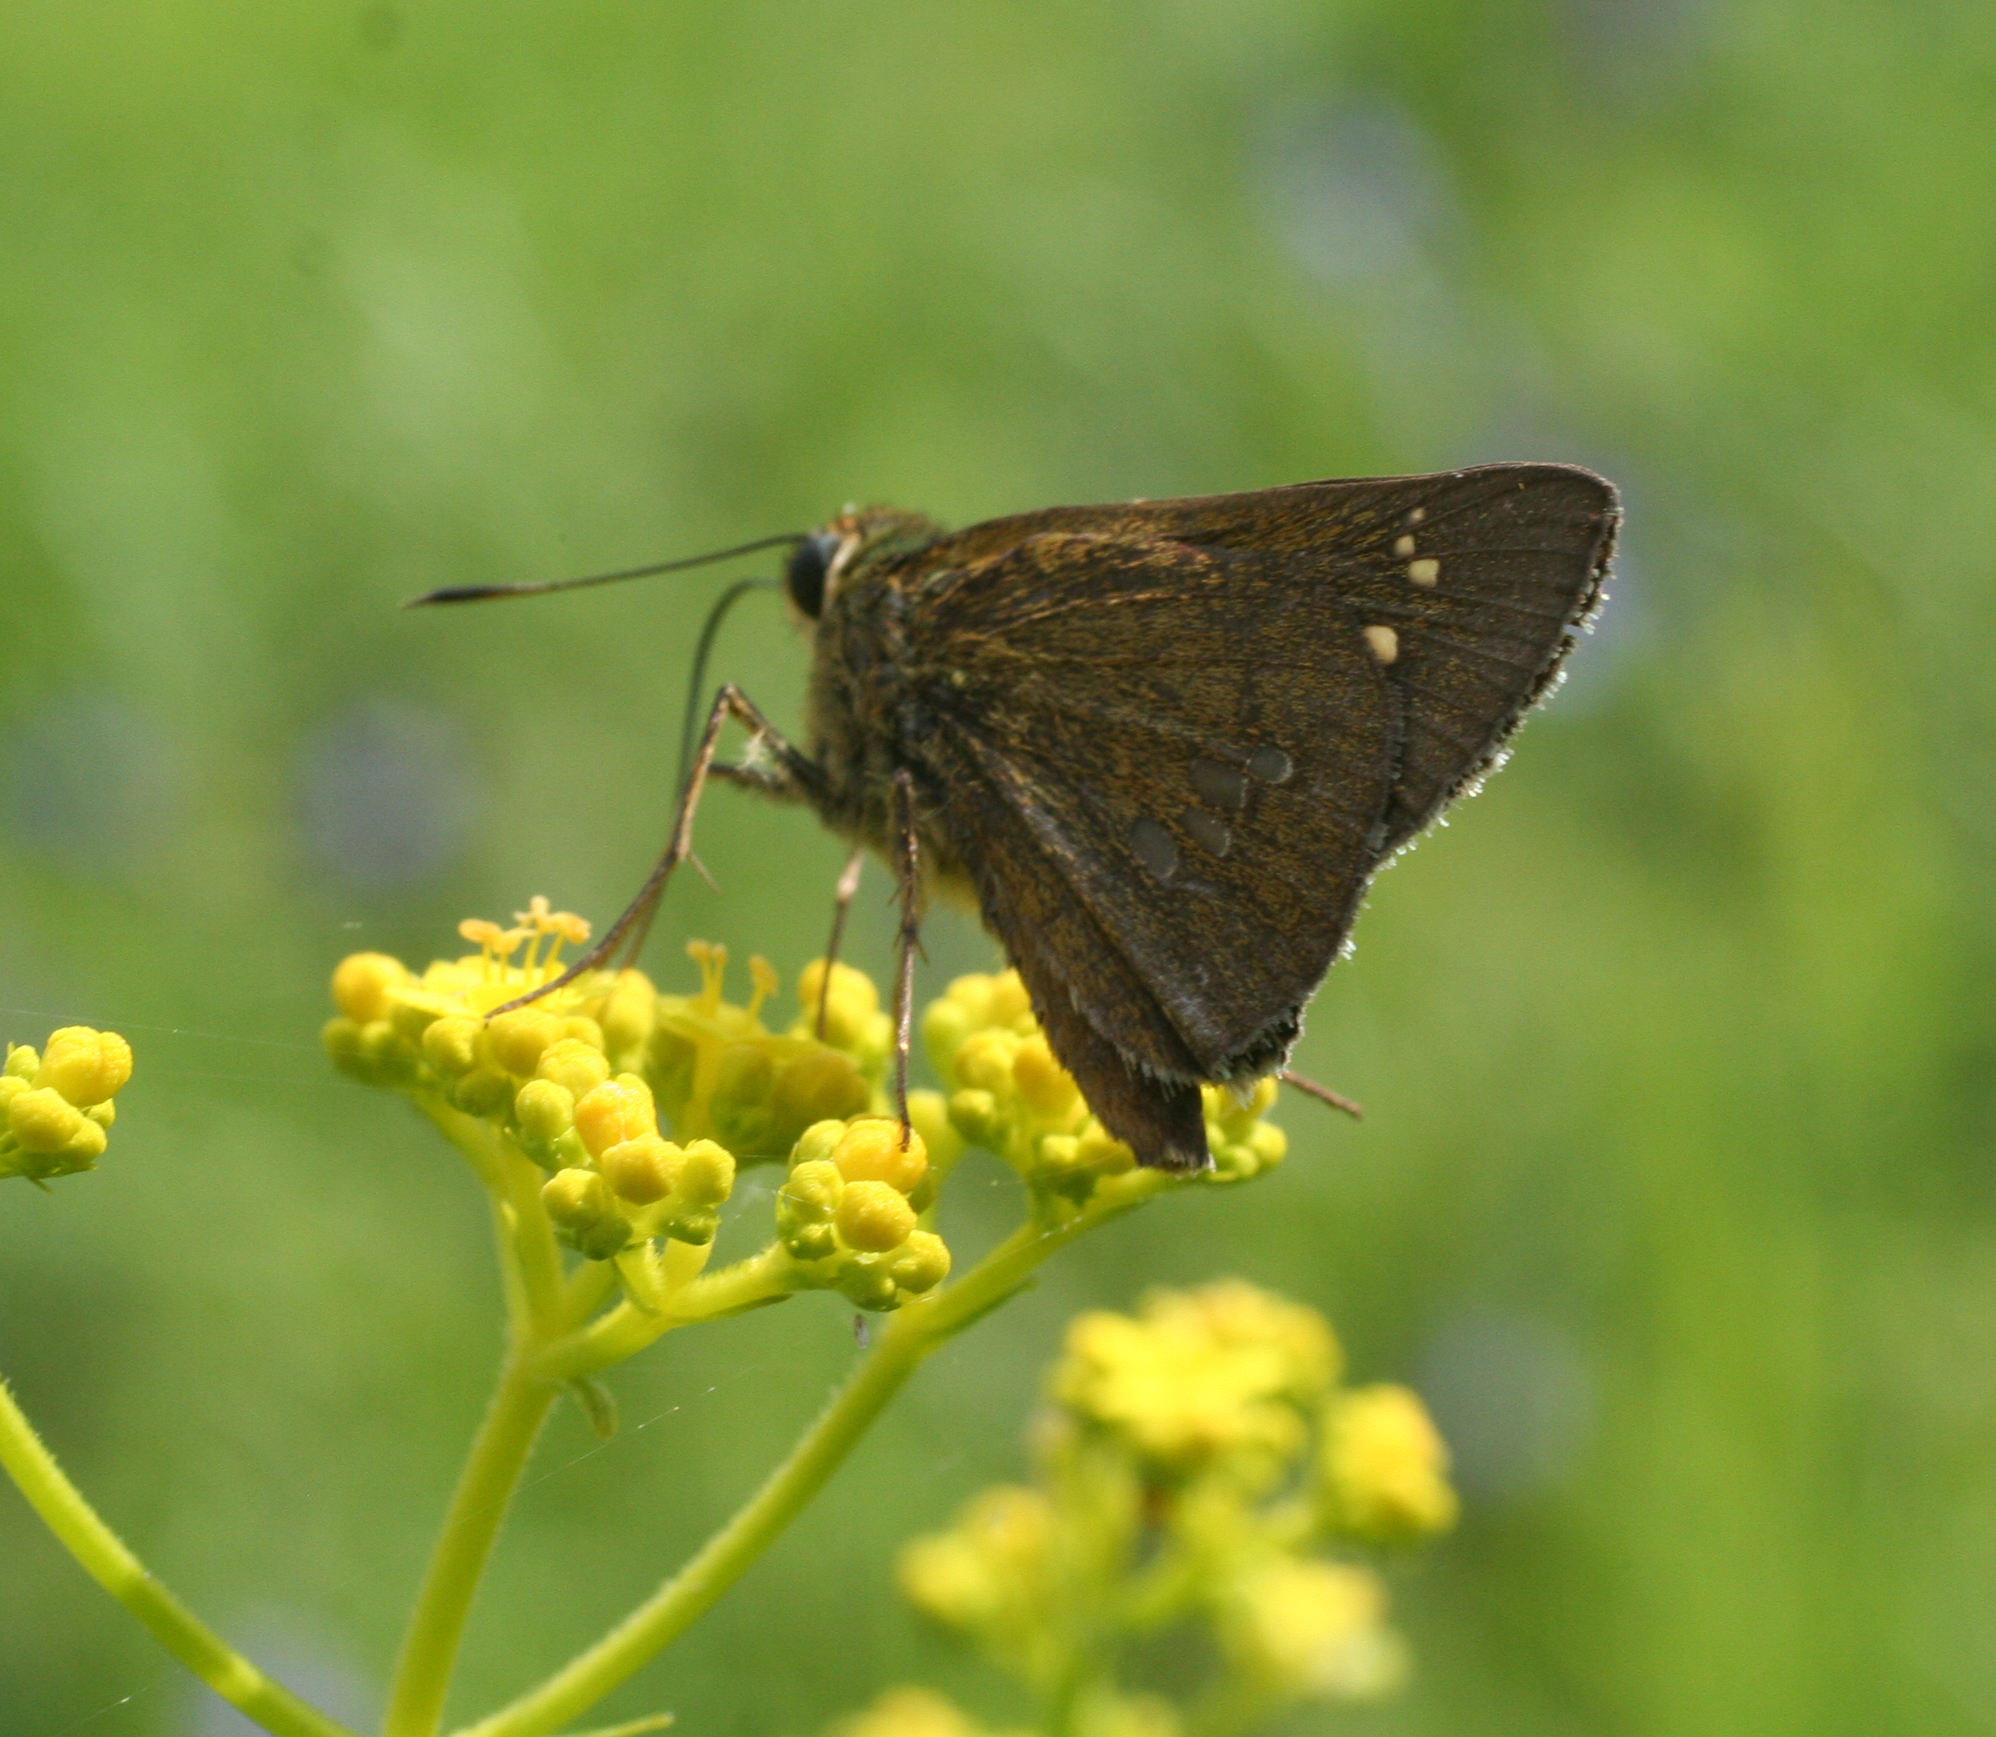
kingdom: Animalia
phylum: Arthropoda
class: Insecta
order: Lepidoptera
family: Hesperiidae
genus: Polytremis
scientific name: Polytremis zina
